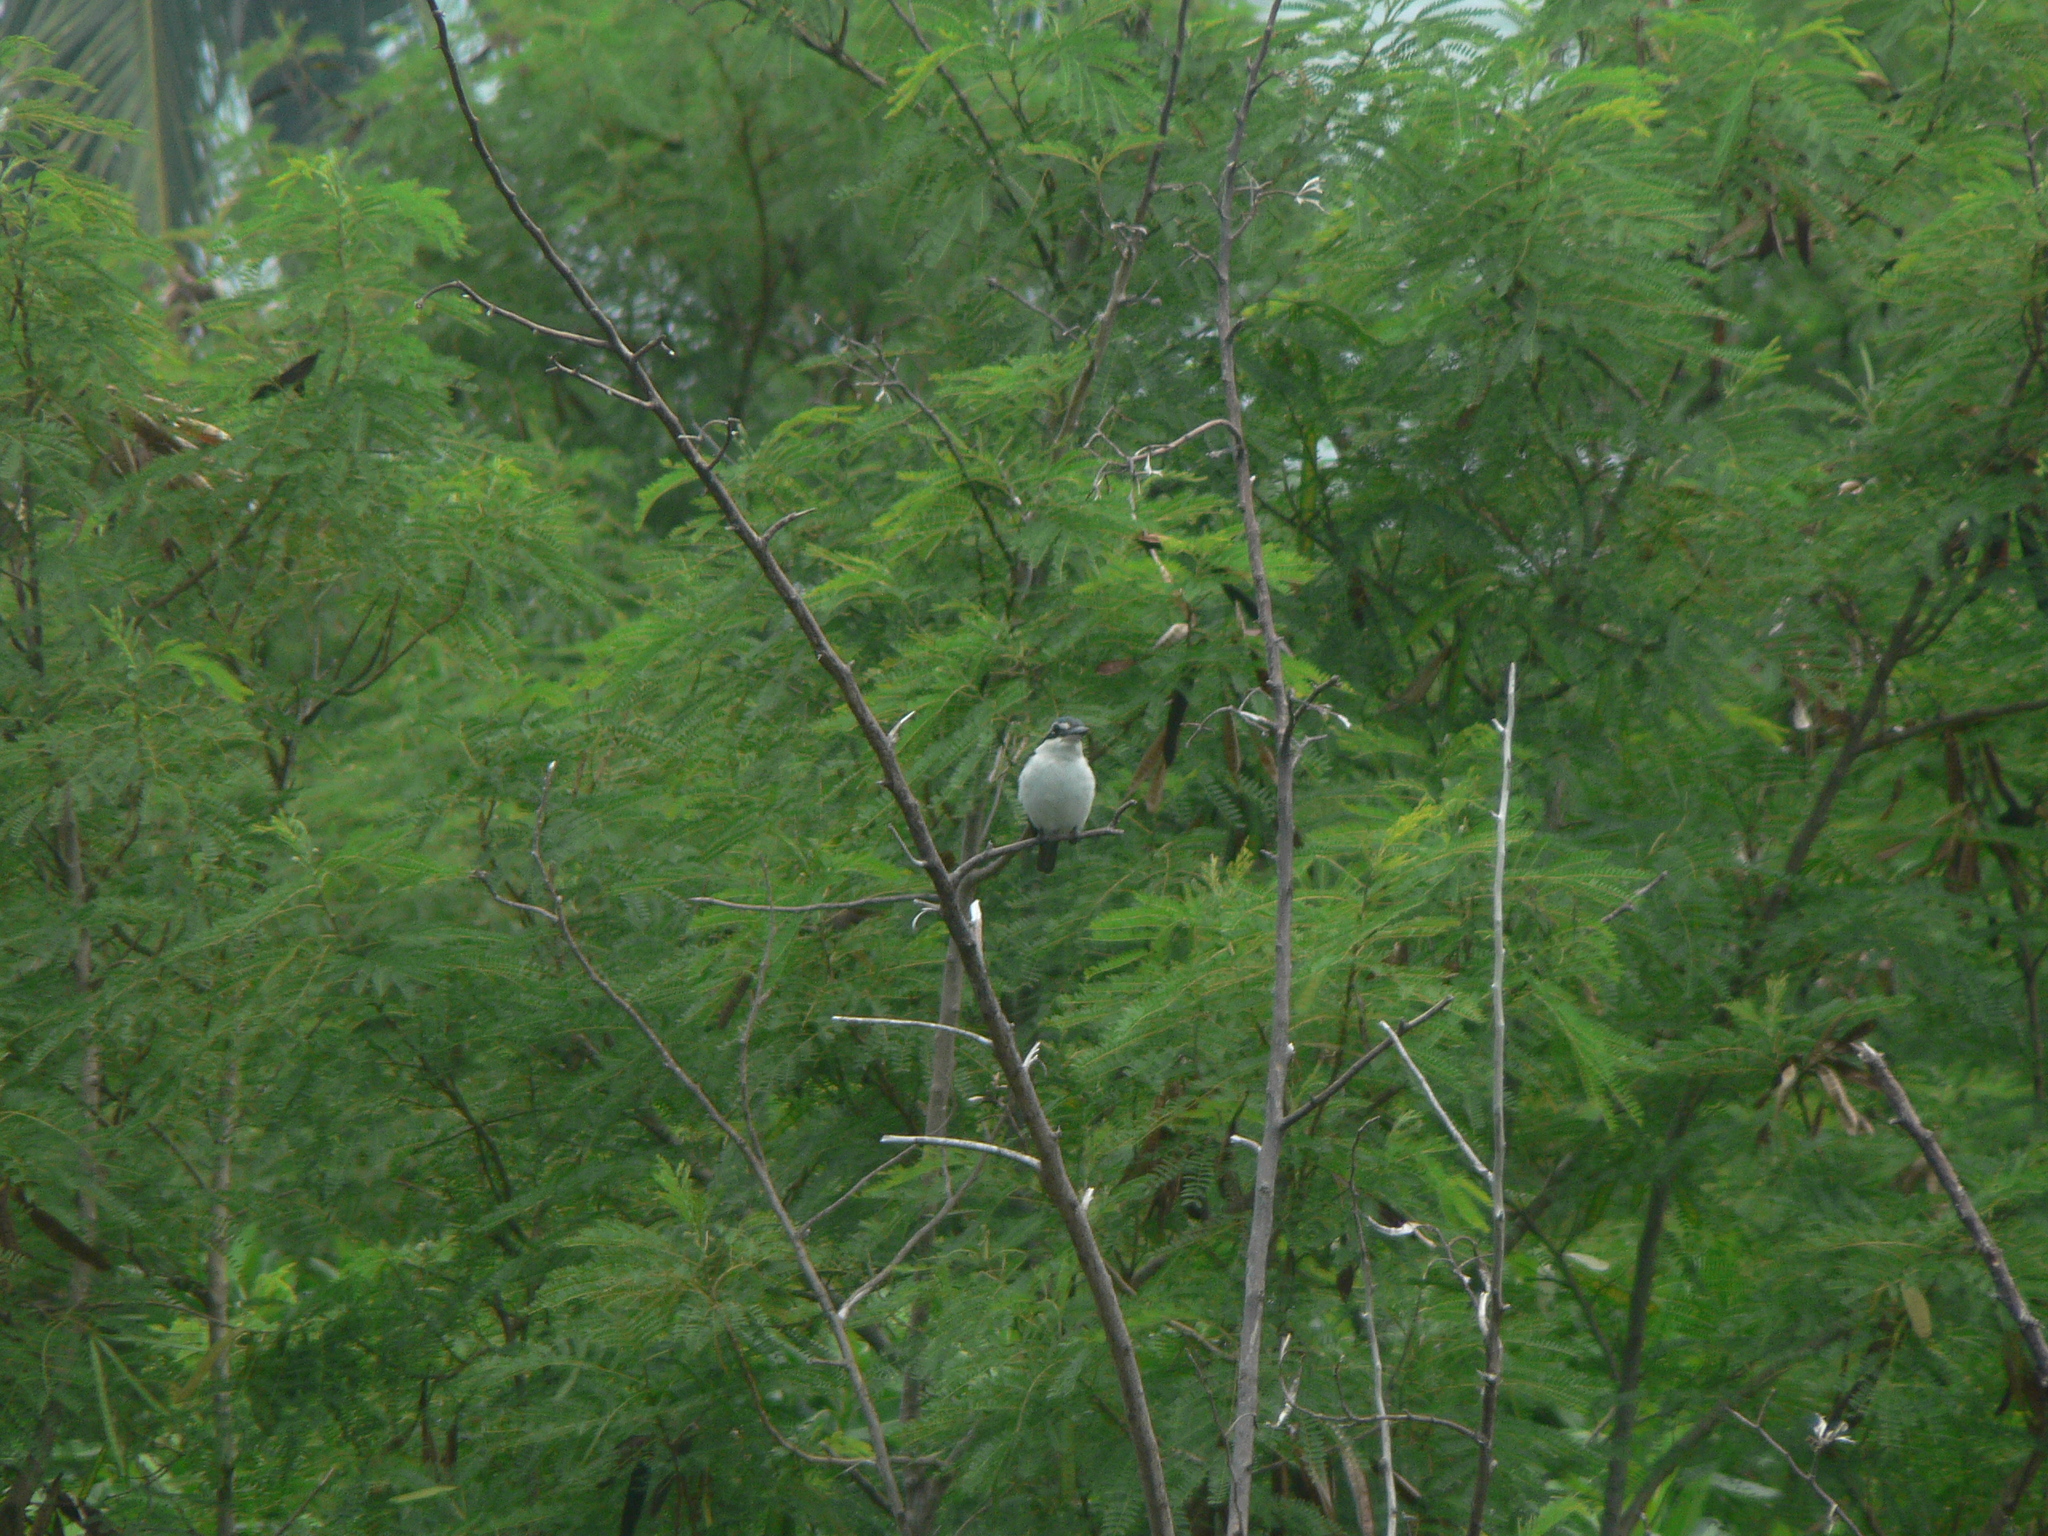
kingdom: Animalia
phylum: Chordata
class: Aves
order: Coraciiformes
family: Alcedinidae
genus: Todiramphus
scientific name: Todiramphus sacer
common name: Pacific kingfisher
